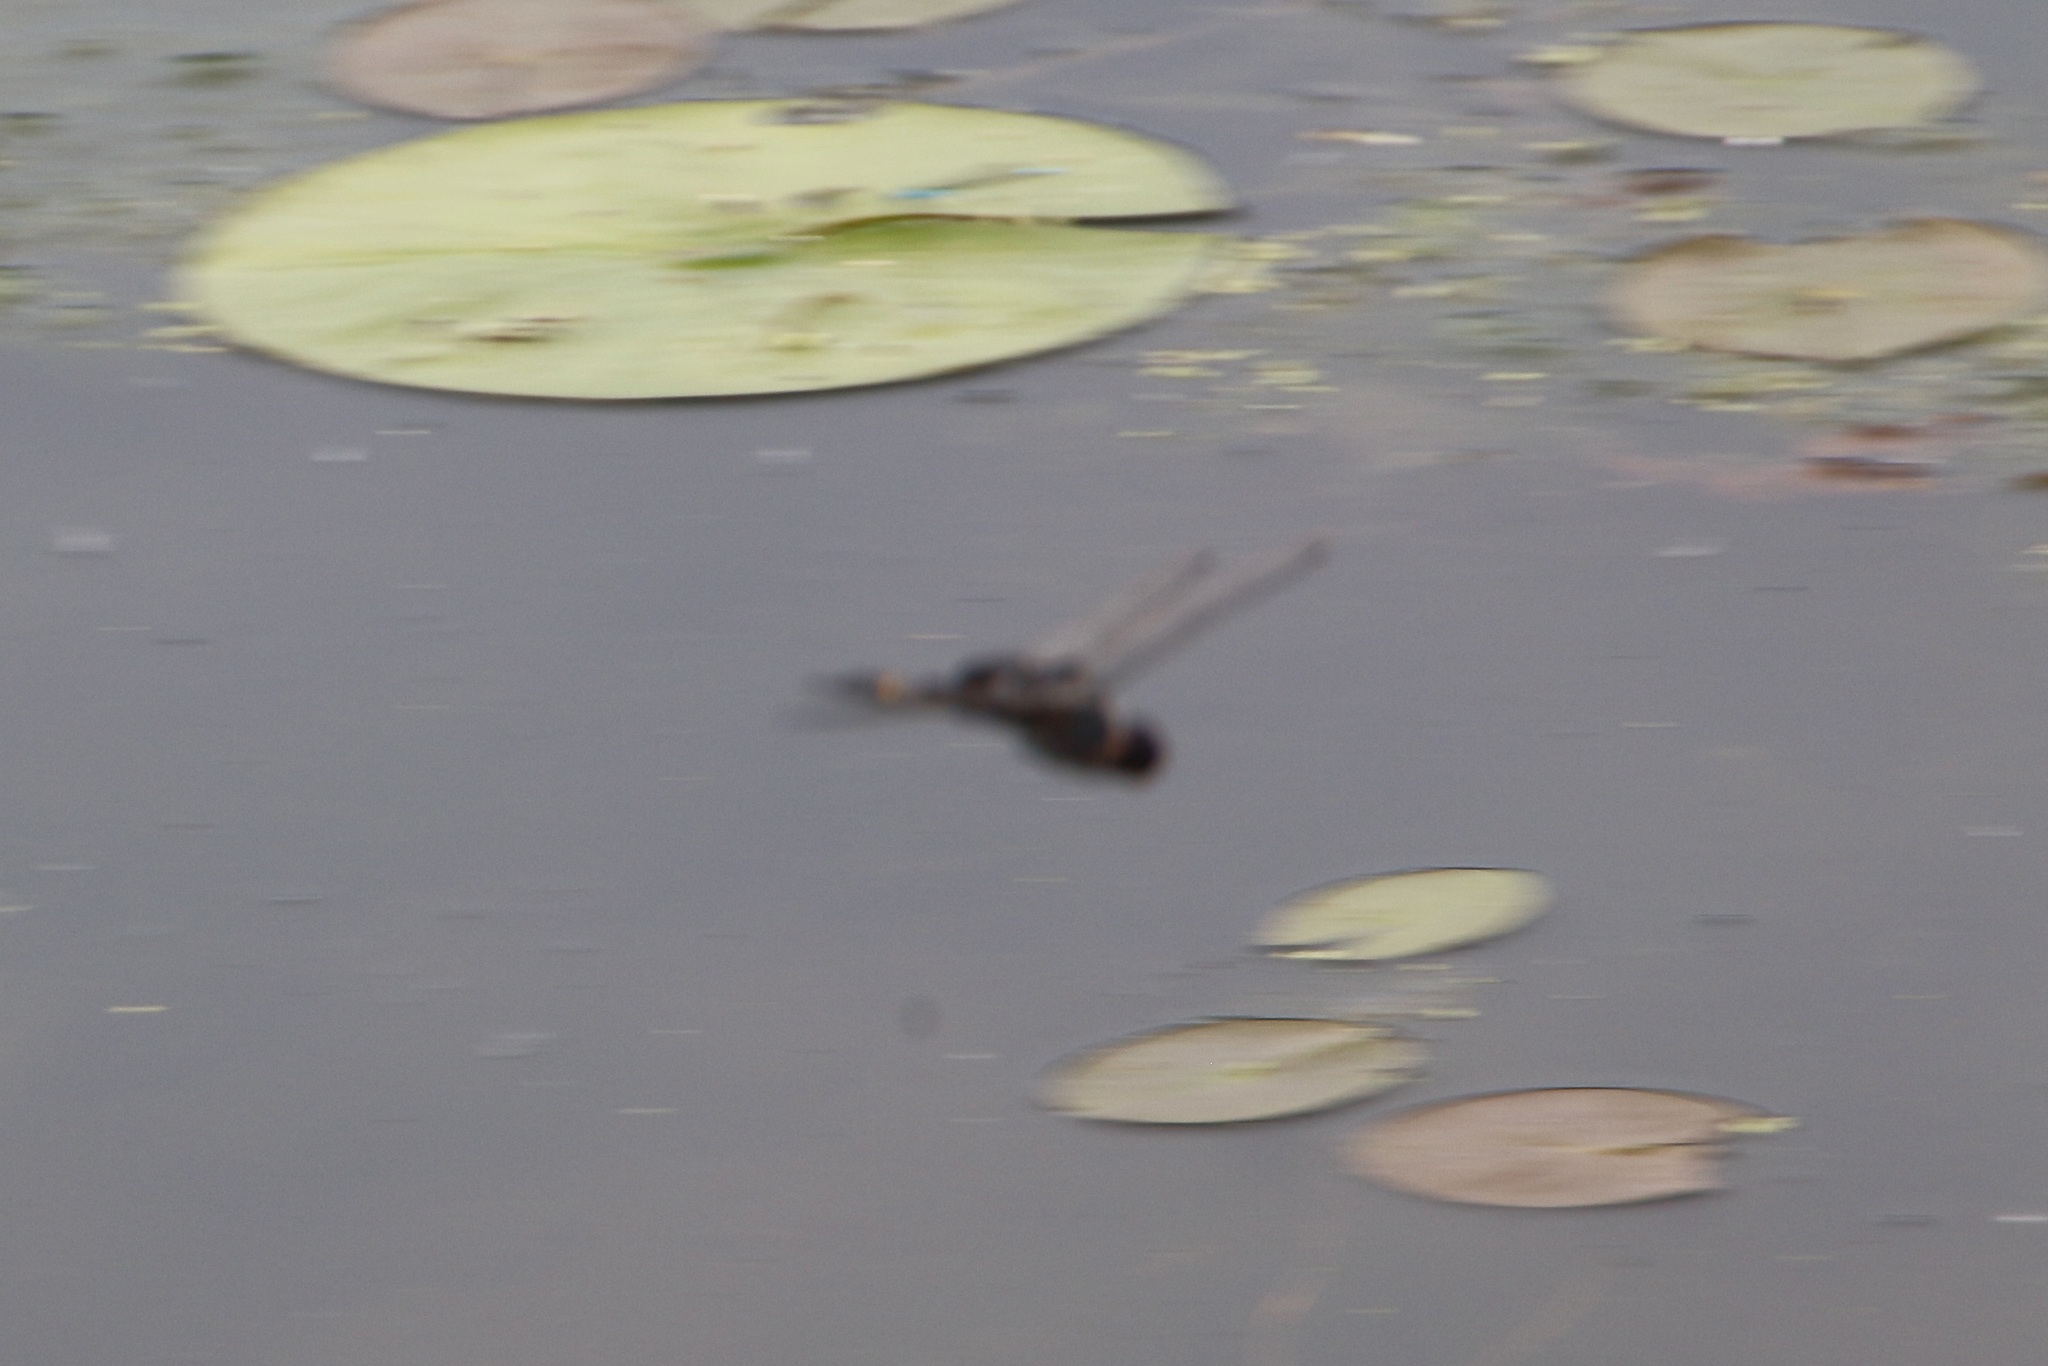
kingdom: Animalia
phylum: Arthropoda
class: Insecta
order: Odonata
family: Libellulidae
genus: Tramea
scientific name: Tramea lacerata
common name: Black saddlebags
